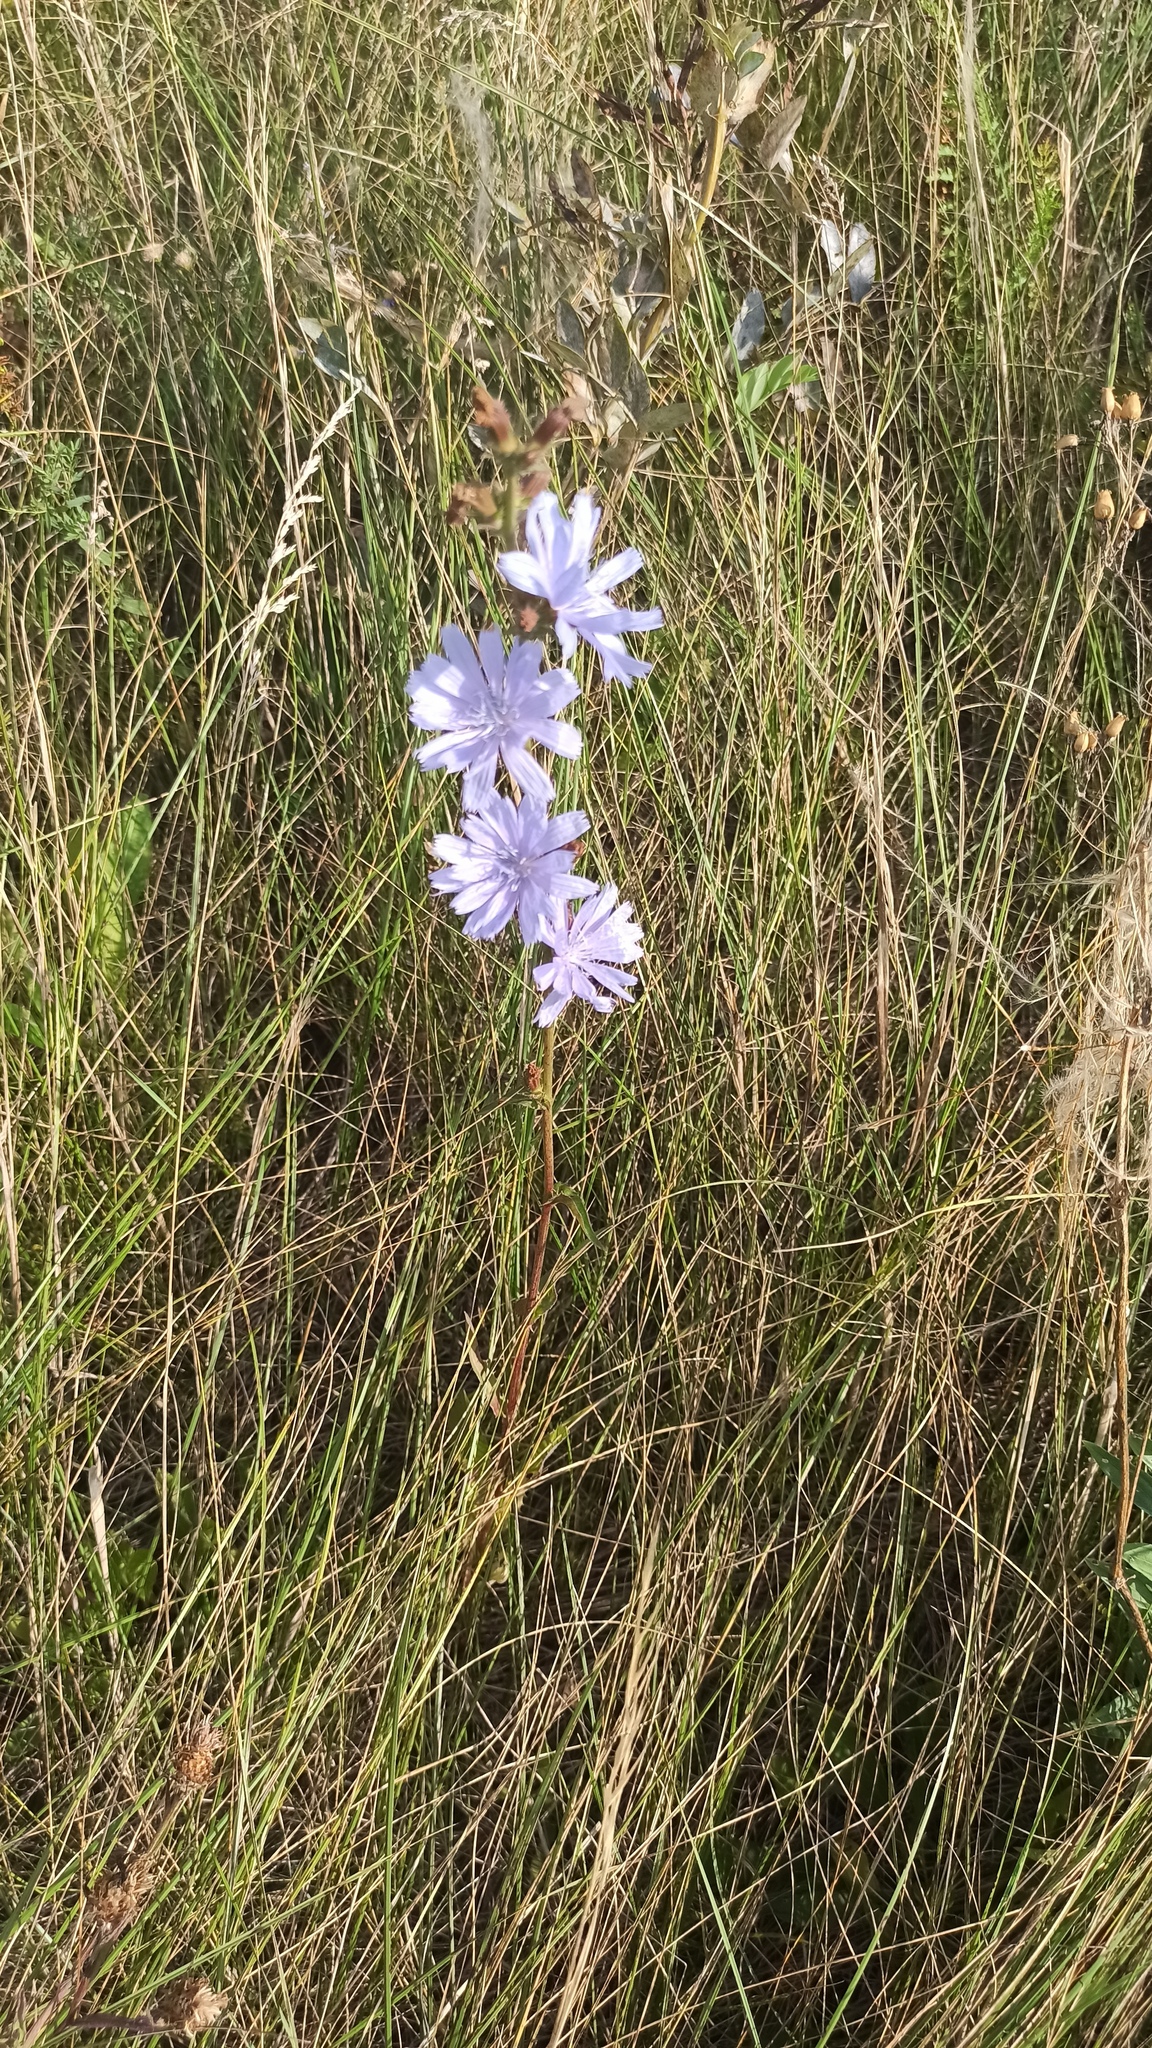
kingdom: Plantae
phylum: Tracheophyta
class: Magnoliopsida
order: Asterales
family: Asteraceae
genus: Cichorium
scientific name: Cichorium intybus
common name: Chicory
